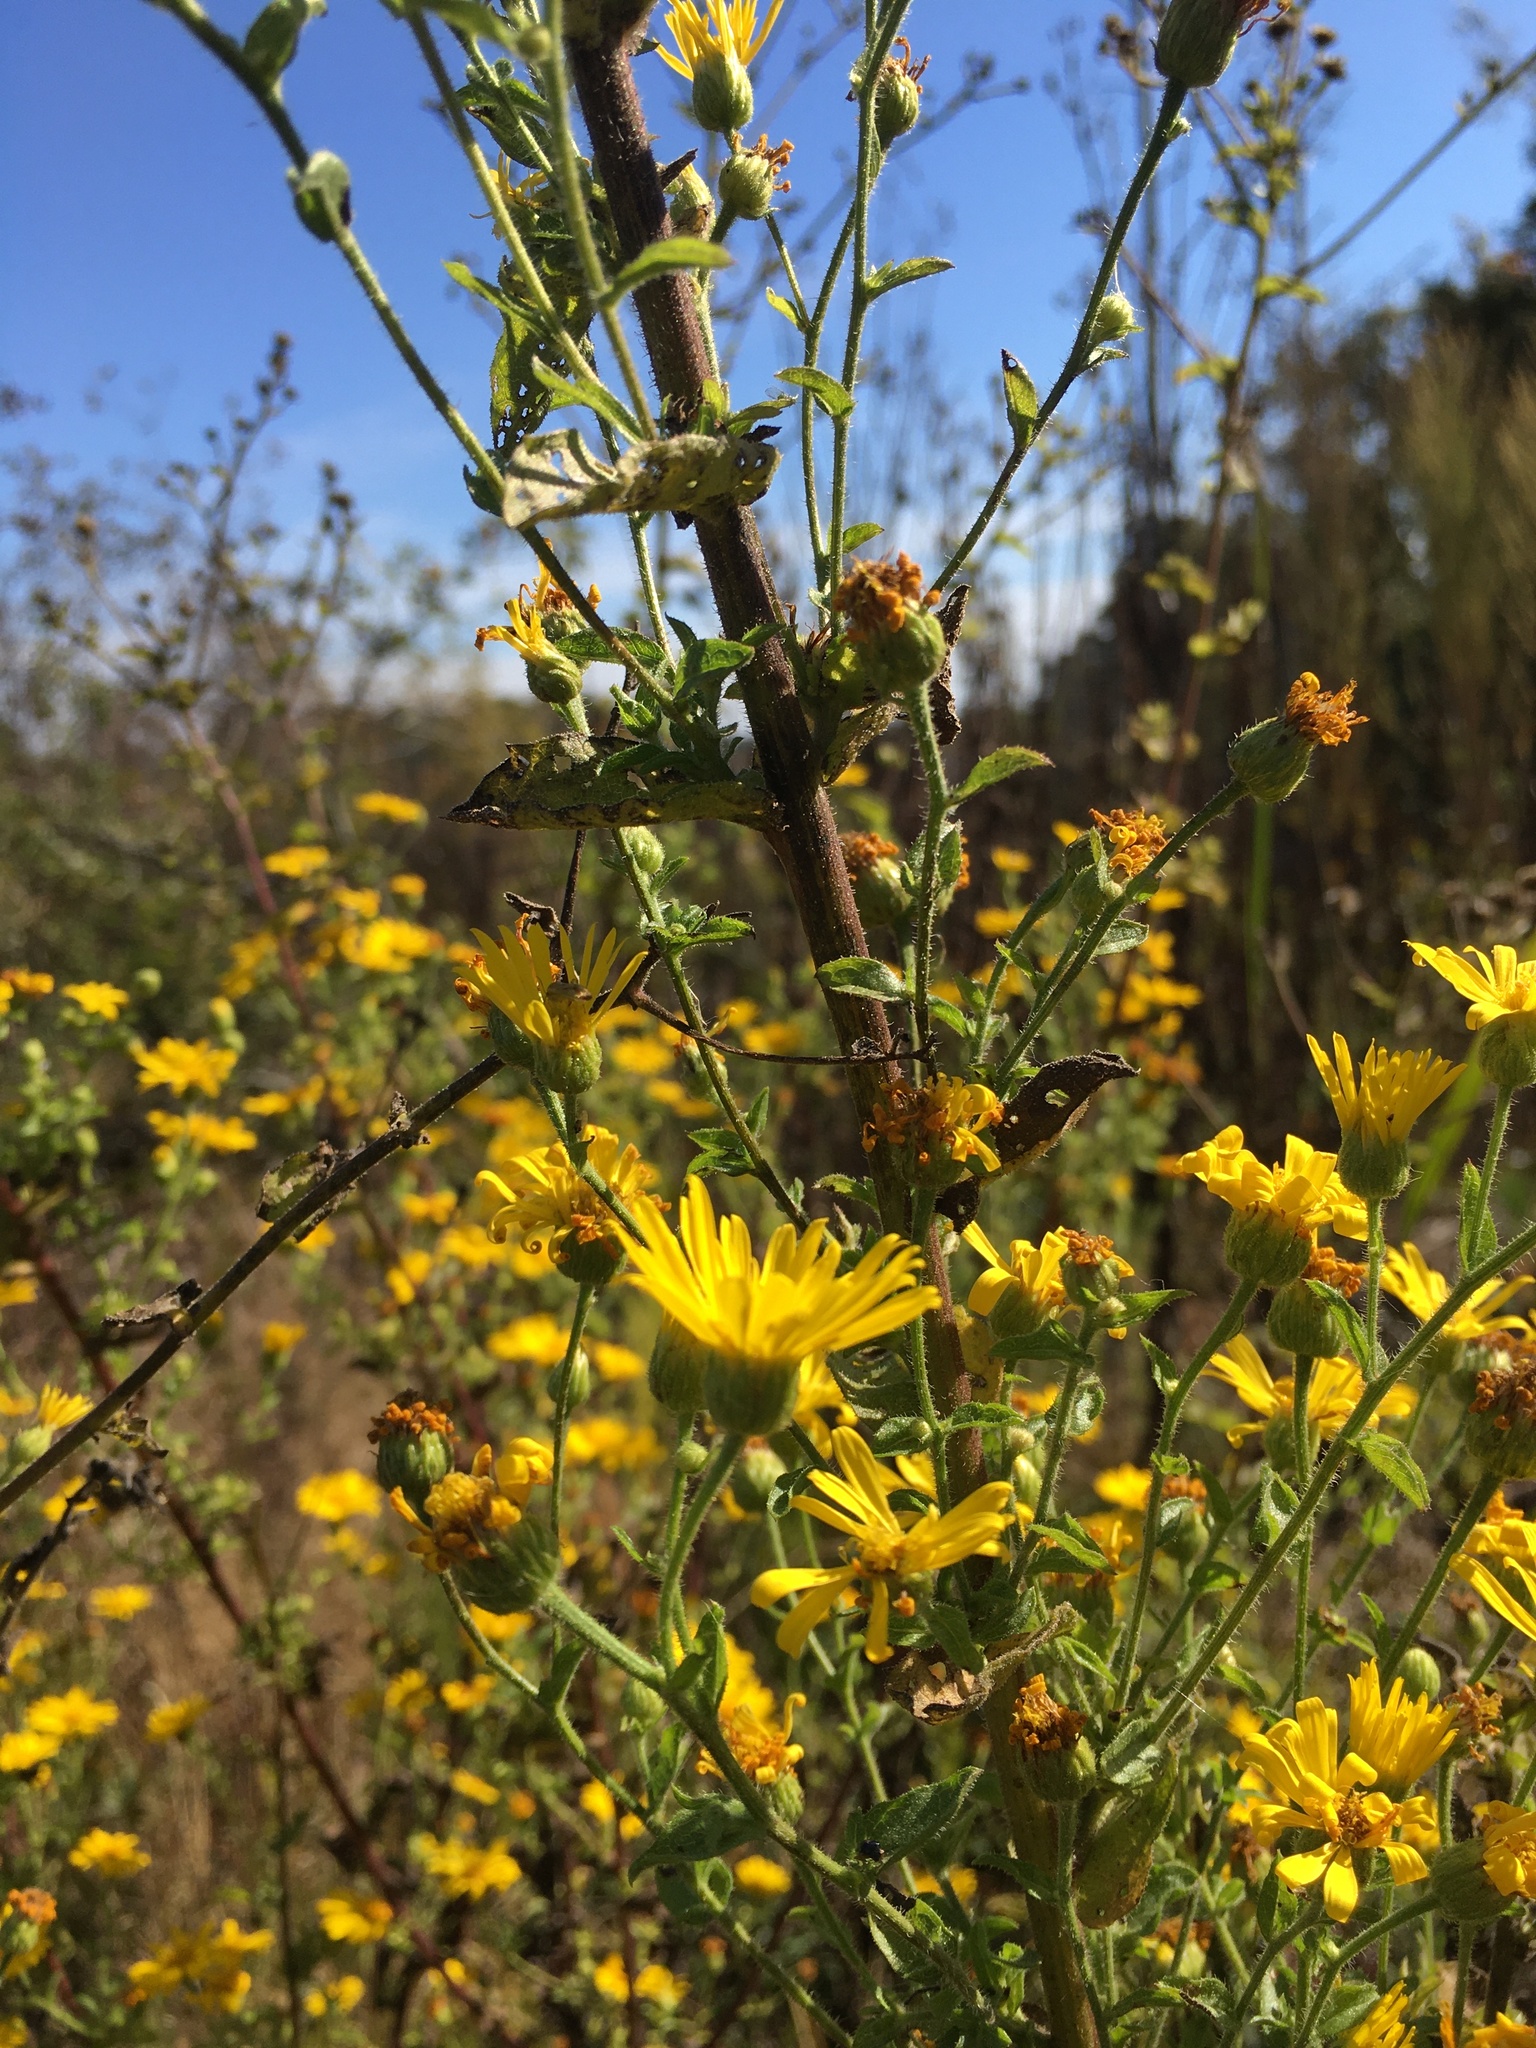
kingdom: Plantae
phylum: Tracheophyta
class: Magnoliopsida
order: Asterales
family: Asteraceae
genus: Heterotheca
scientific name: Heterotheca subaxillaris
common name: Camphorweed
